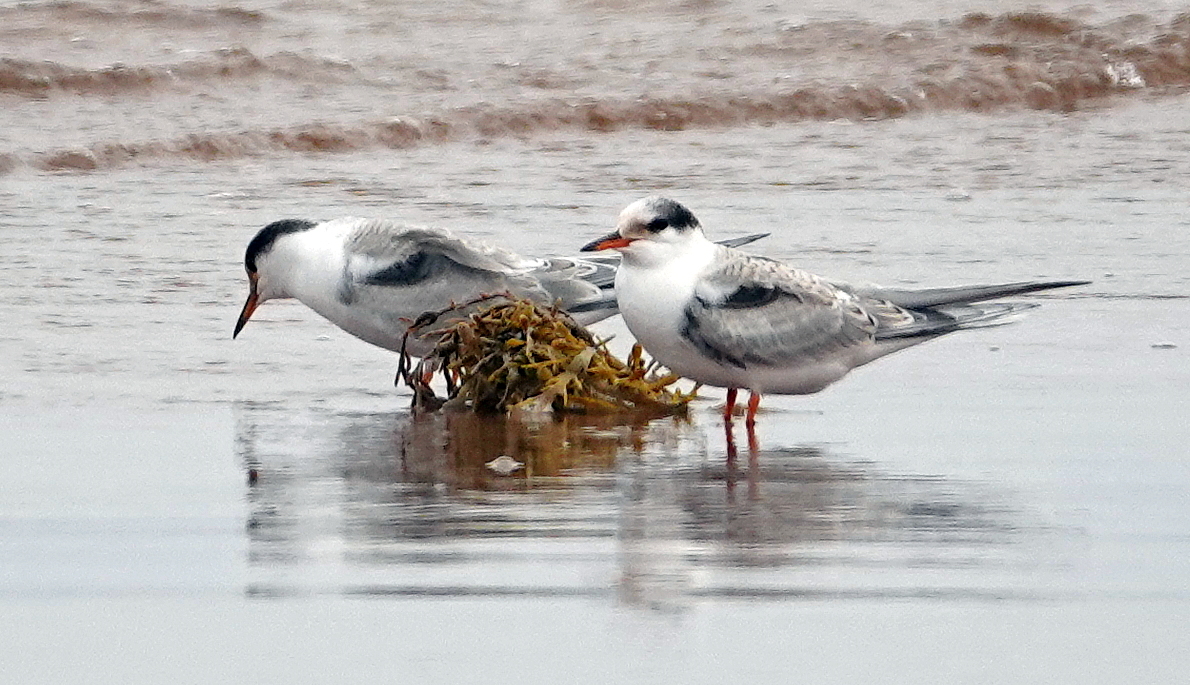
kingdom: Animalia
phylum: Chordata
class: Aves
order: Charadriiformes
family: Laridae
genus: Sterna
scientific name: Sterna hirundo
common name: Common tern
